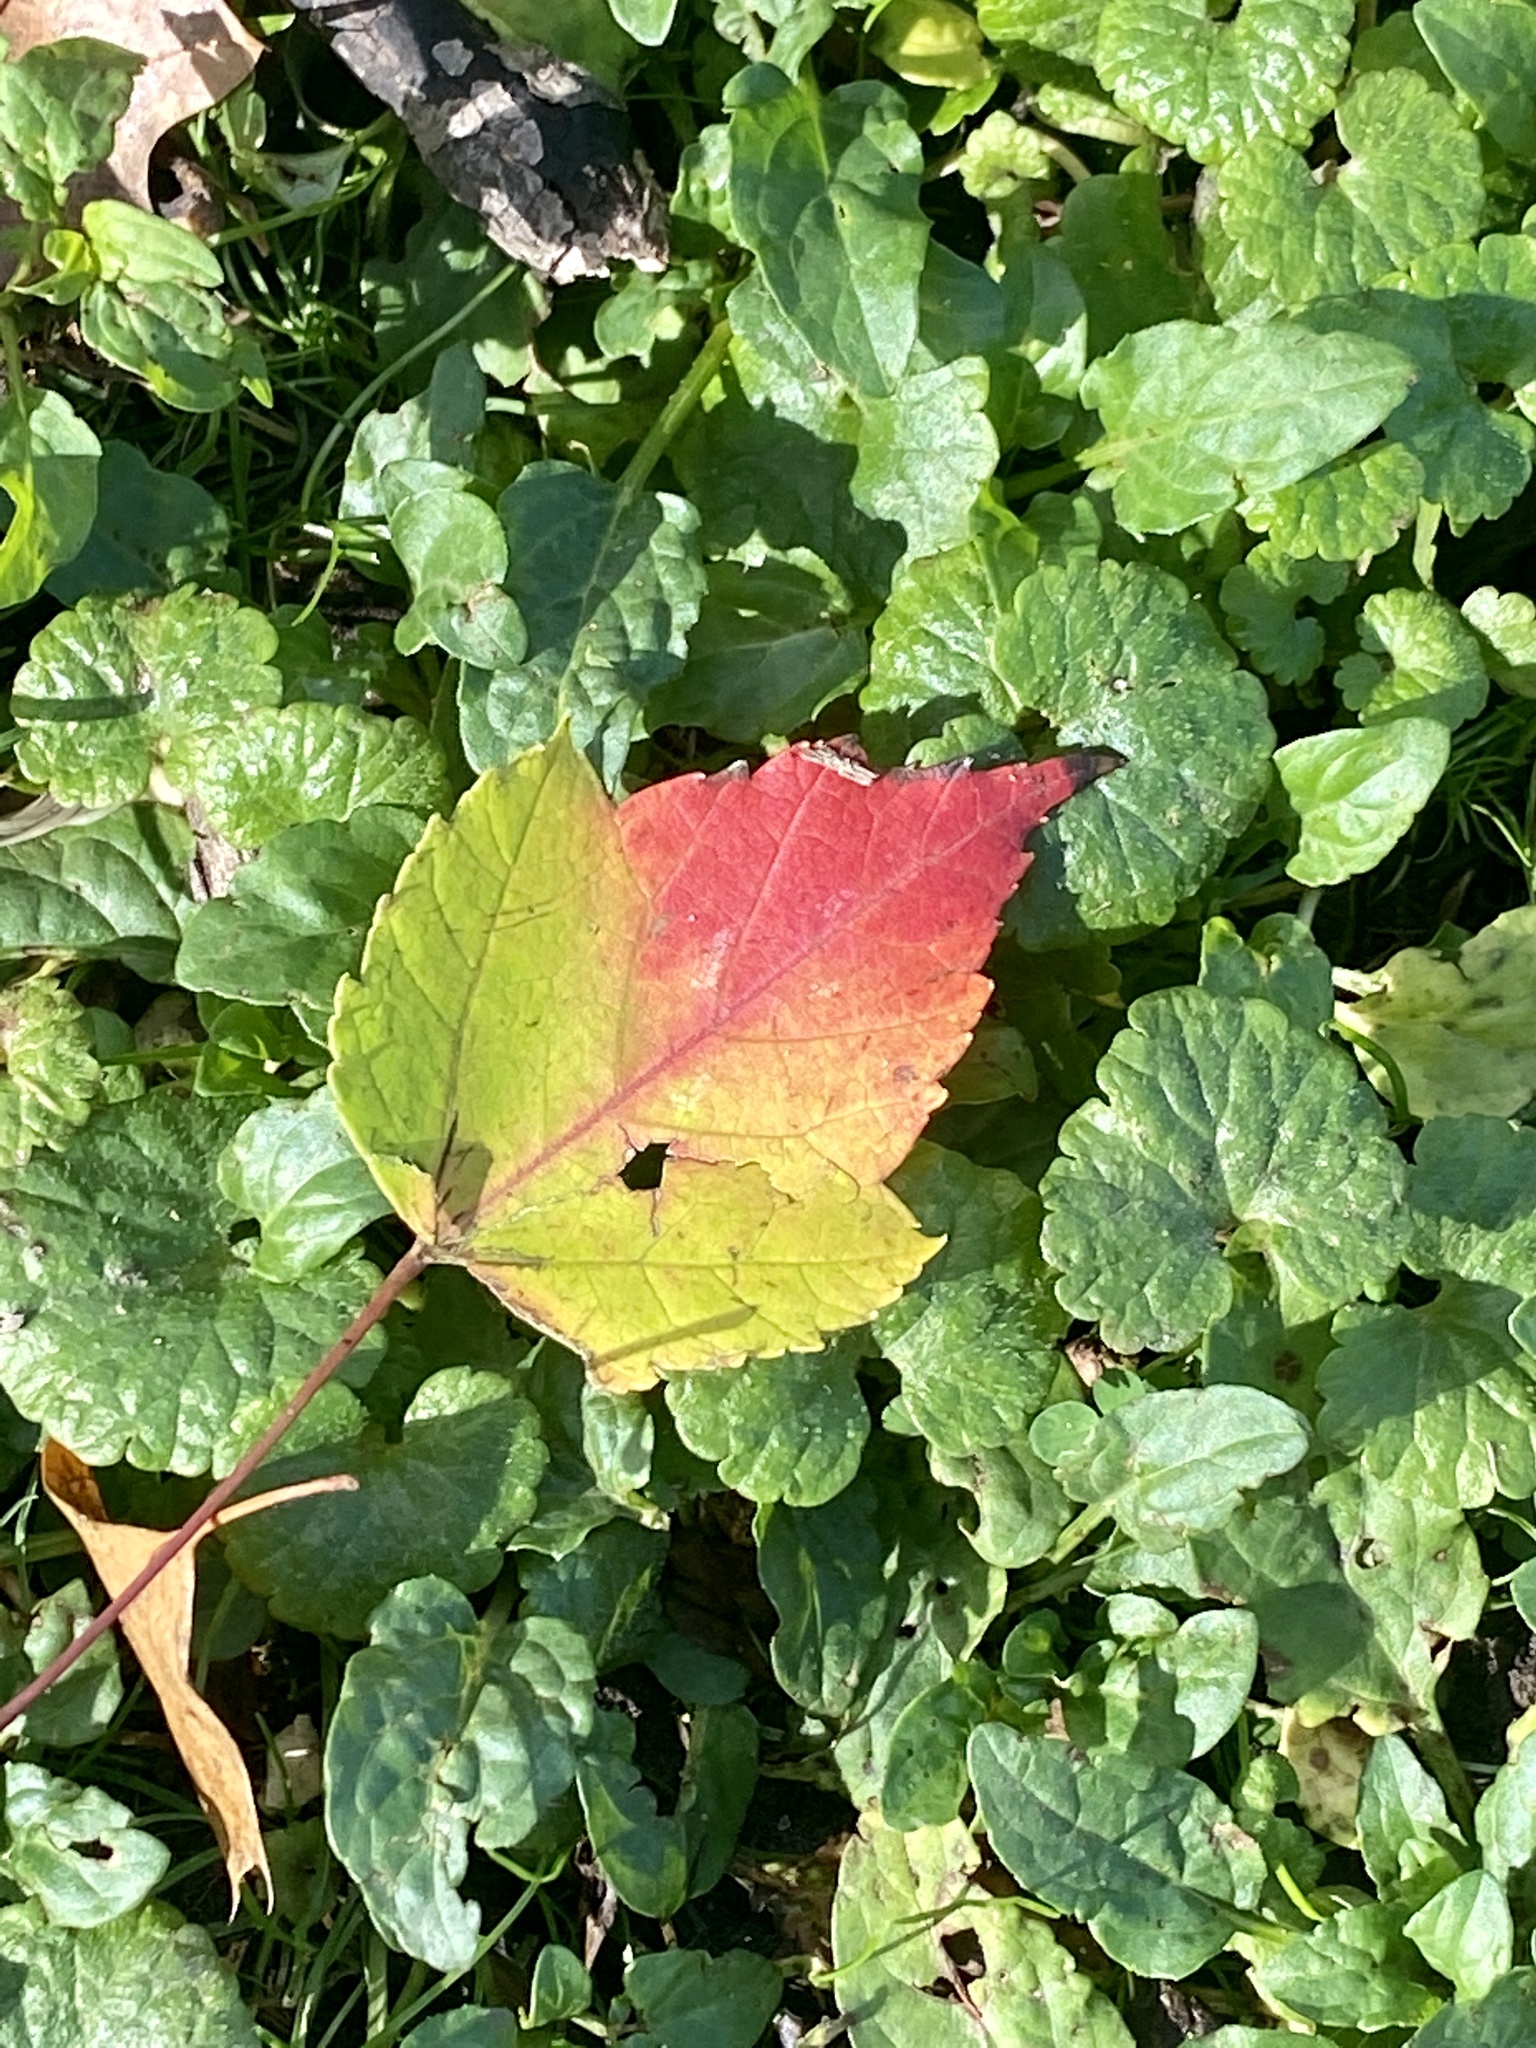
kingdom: Plantae
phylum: Tracheophyta
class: Magnoliopsida
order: Sapindales
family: Sapindaceae
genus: Acer
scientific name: Acer rubrum
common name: Red maple
